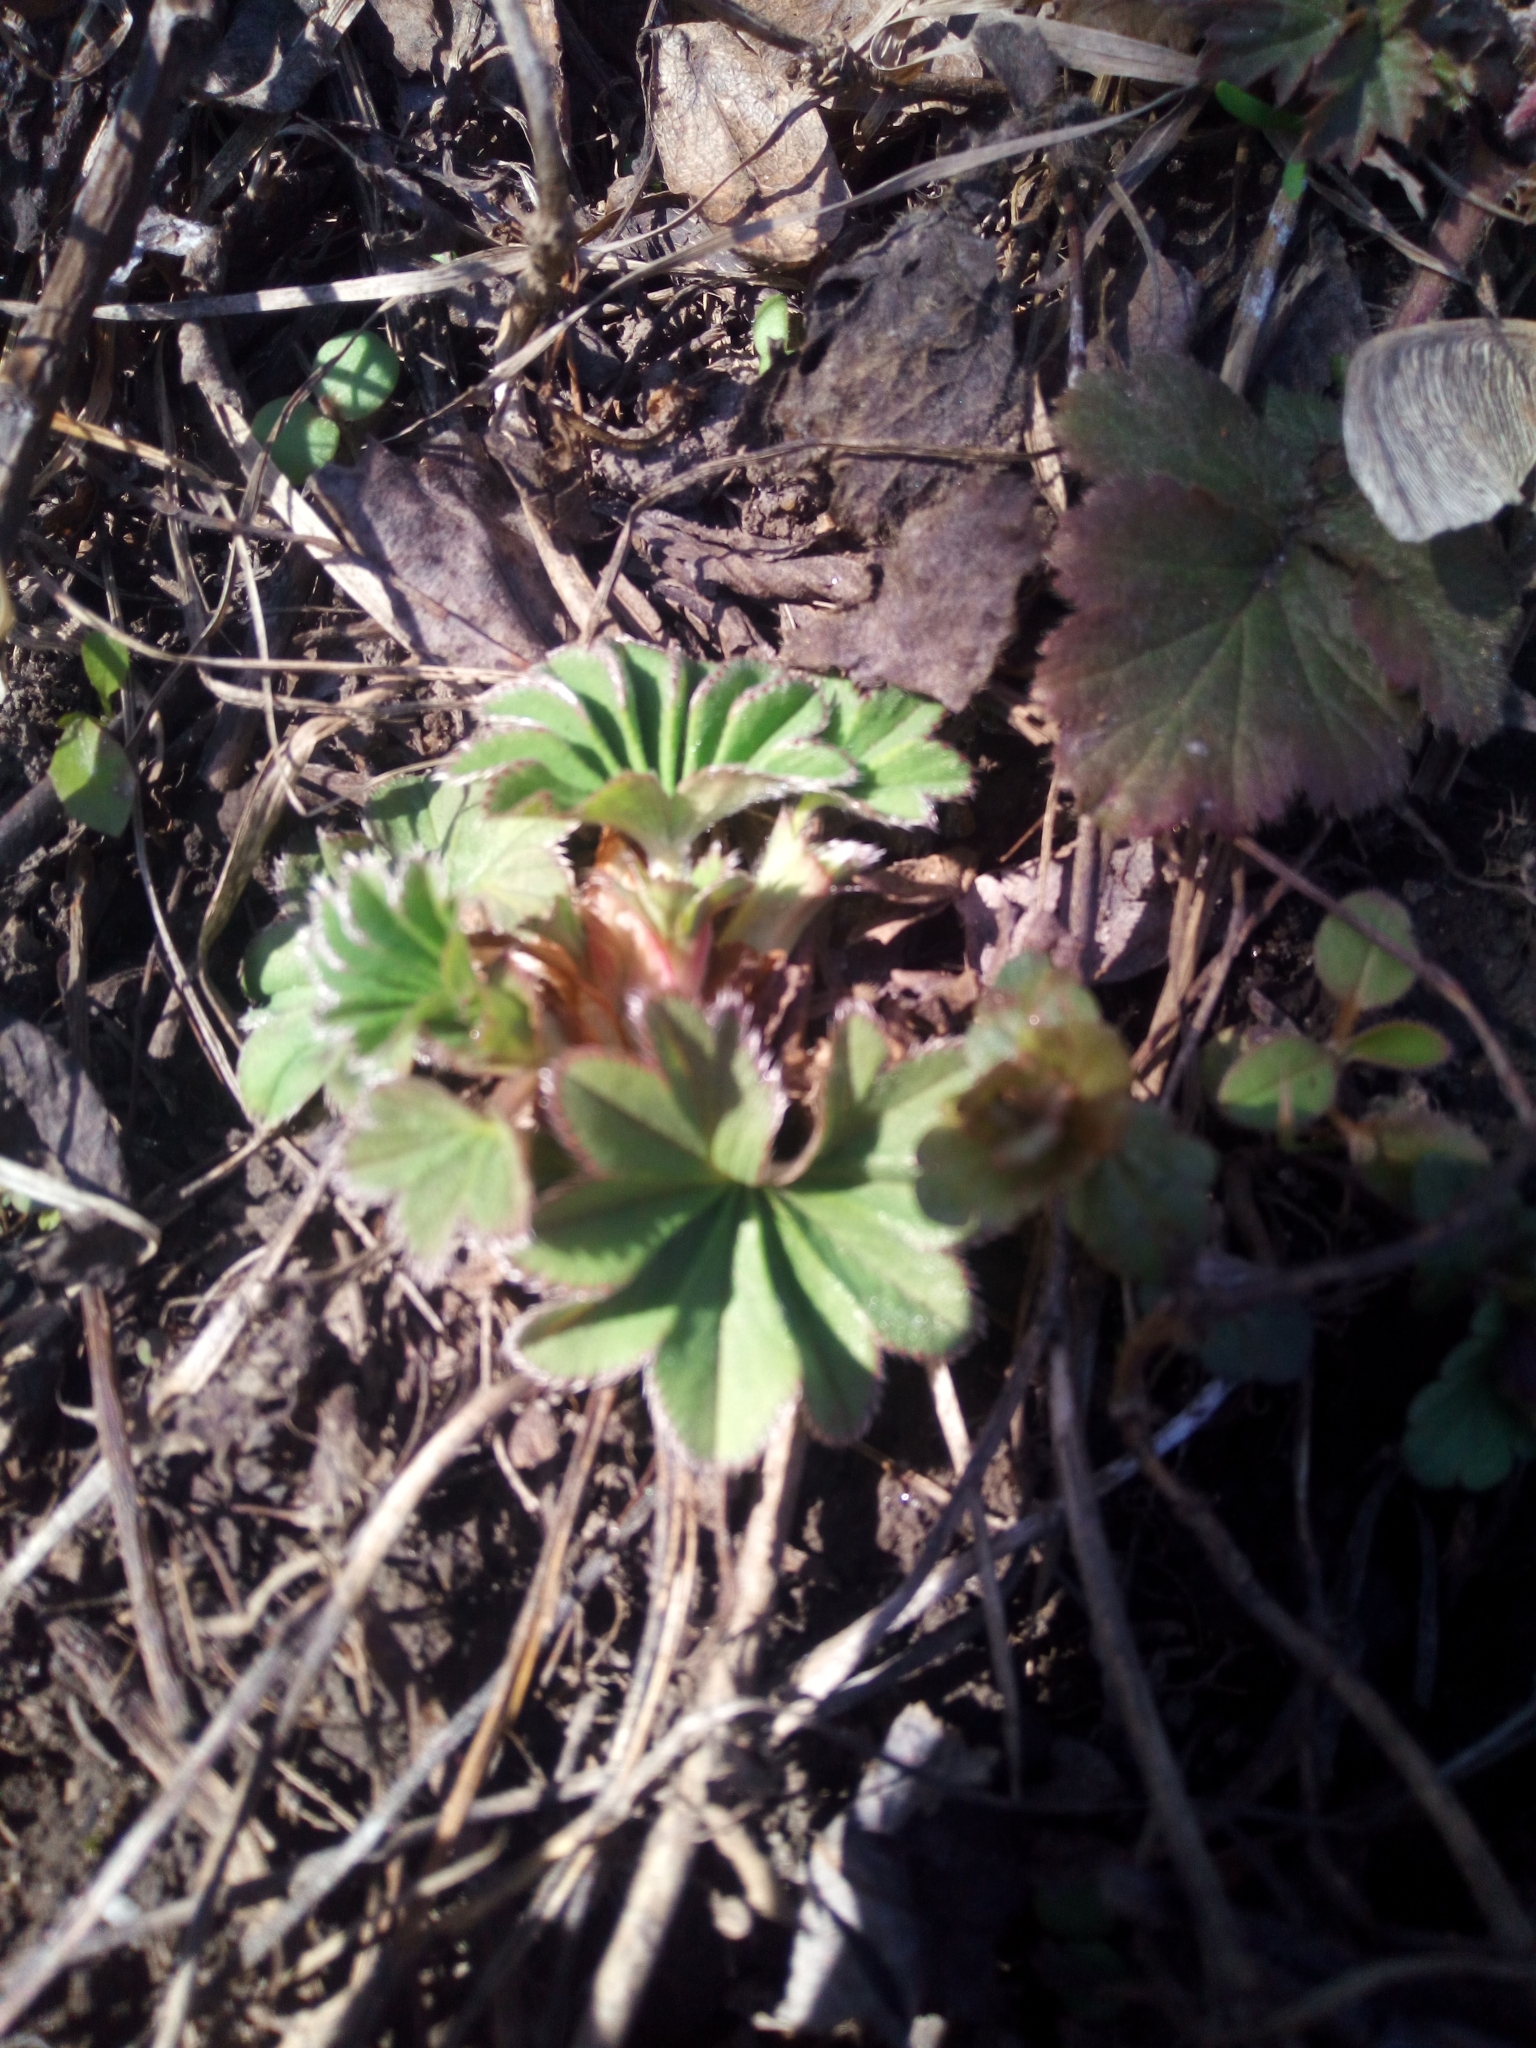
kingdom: Plantae
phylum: Tracheophyta
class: Magnoliopsida
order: Rosales
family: Rosaceae
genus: Alchemilla
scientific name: Alchemilla
